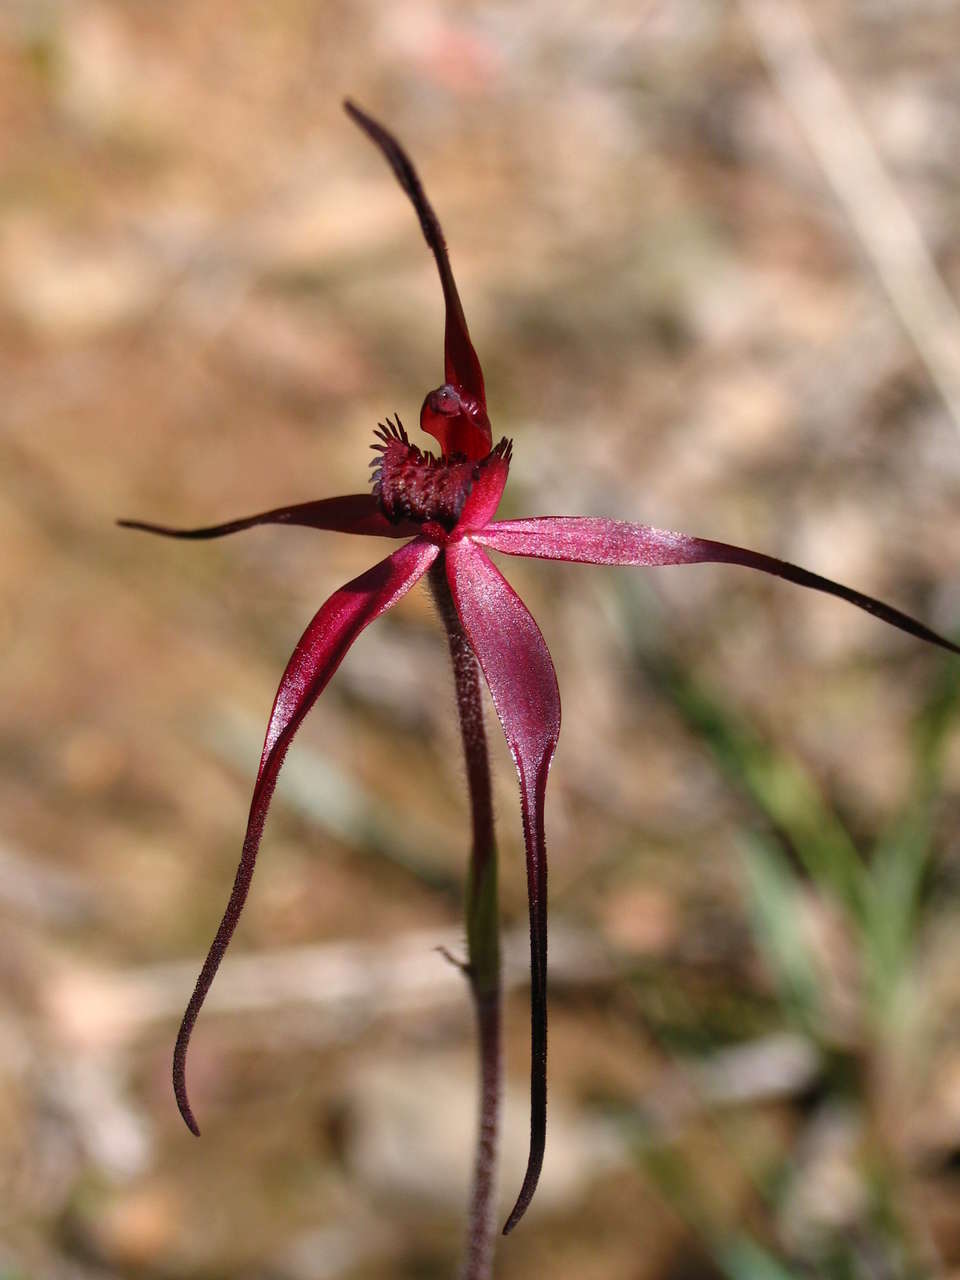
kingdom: Plantae
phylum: Tracheophyta
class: Liliopsida
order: Asparagales
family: Orchidaceae
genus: Caladenia
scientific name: Caladenia clavescens
